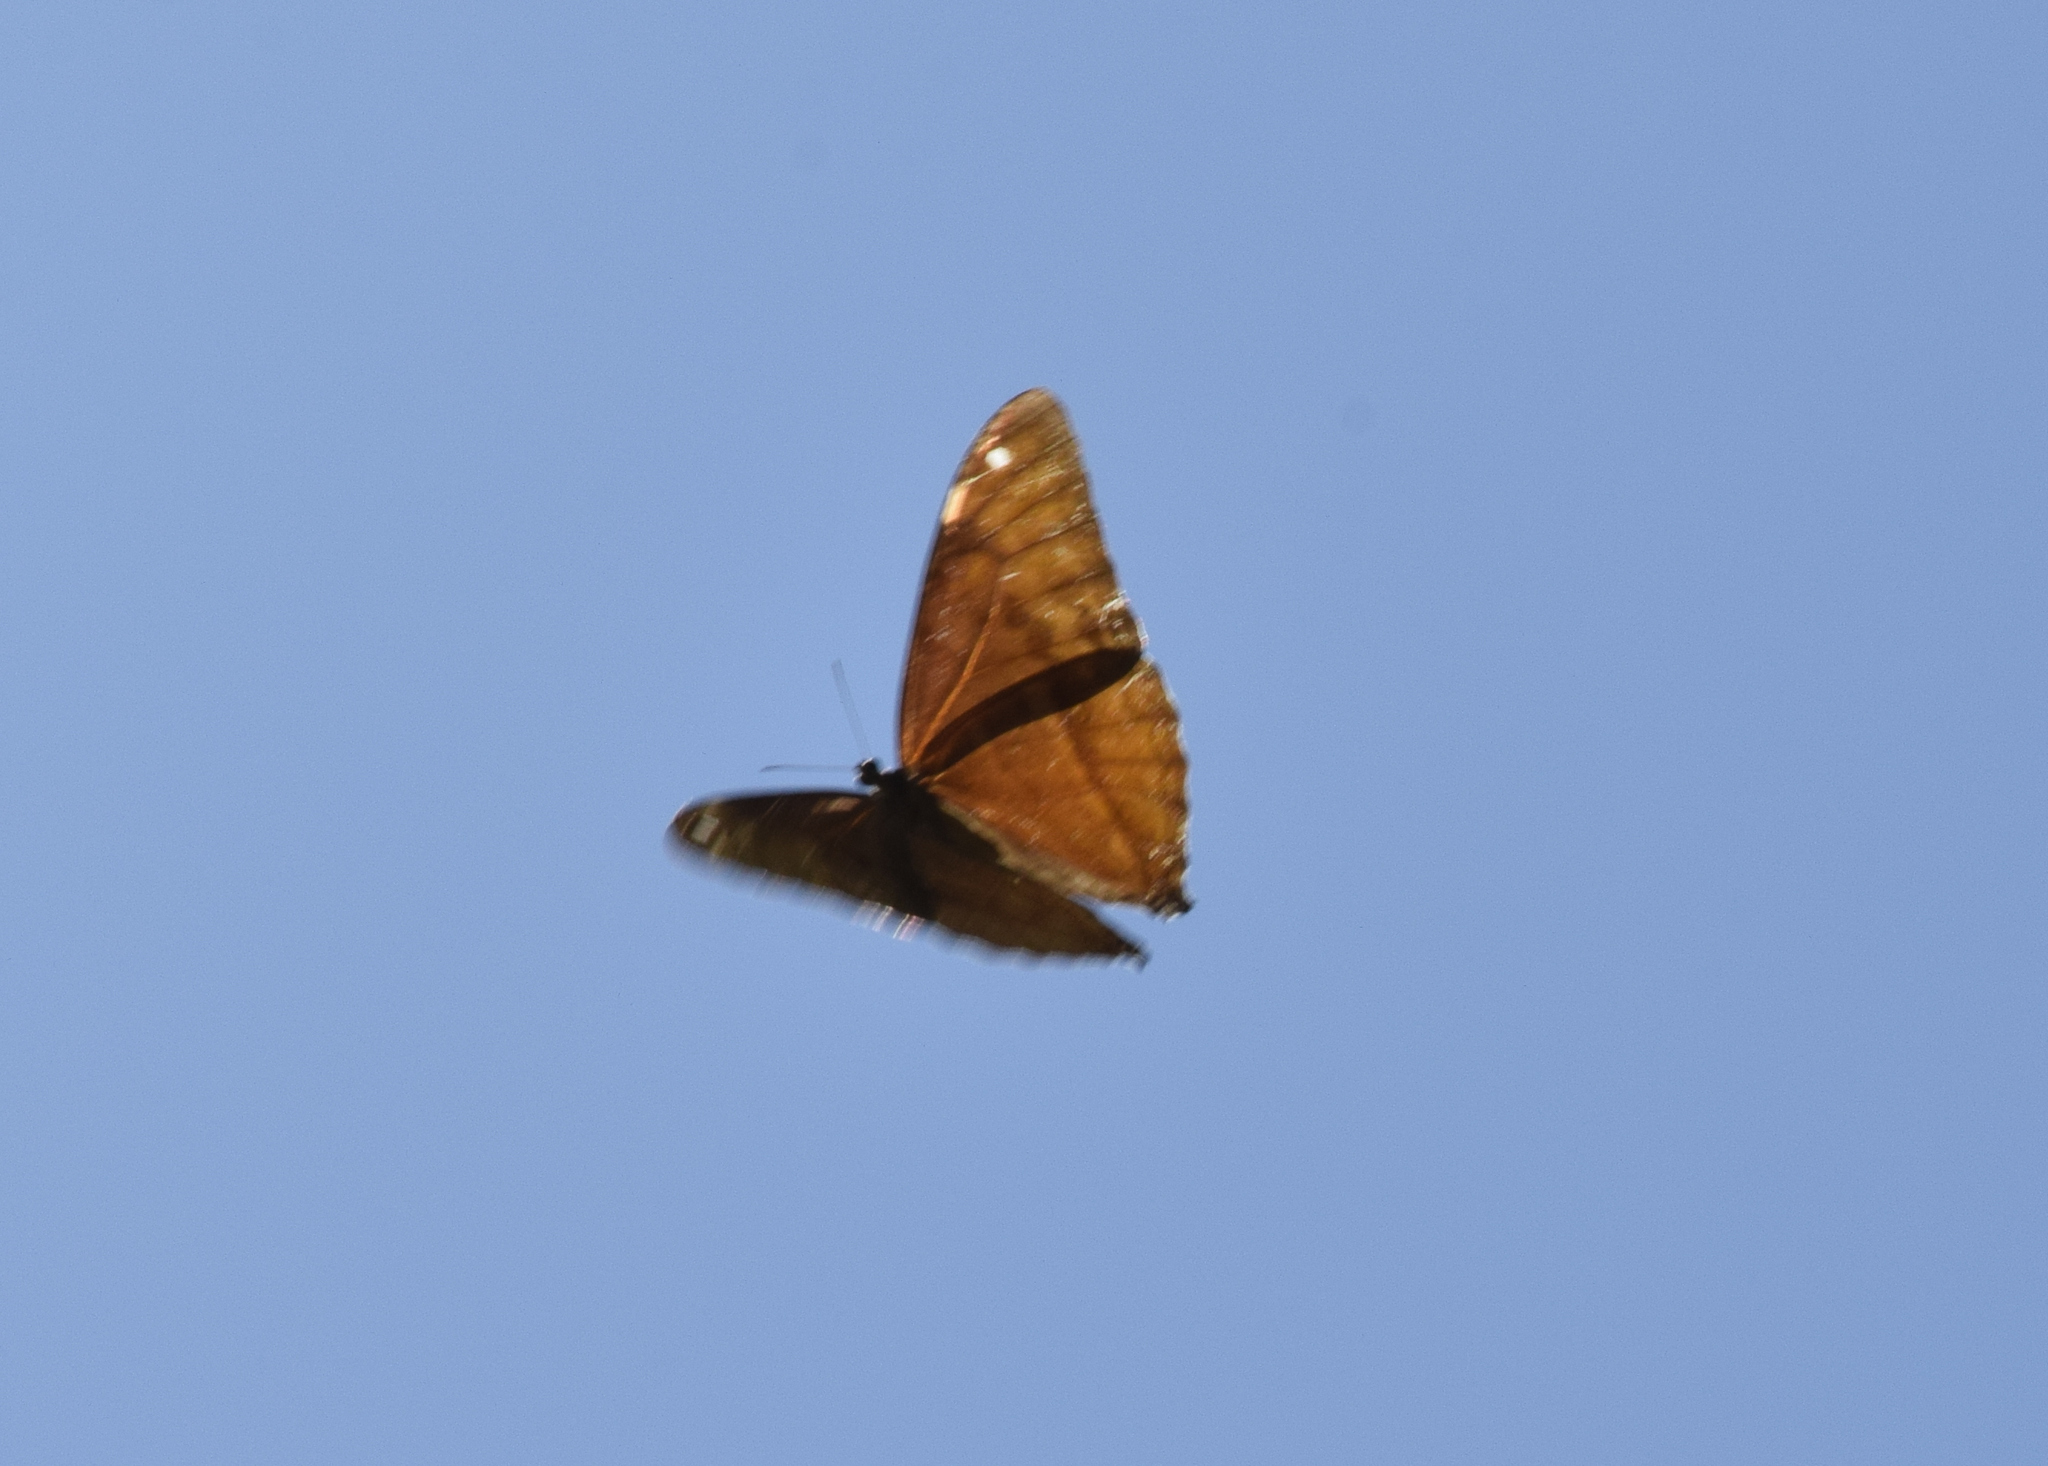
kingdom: Animalia
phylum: Arthropoda
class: Insecta
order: Lepidoptera
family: Nymphalidae
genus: Morpho
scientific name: Morpho aega
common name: Aega morpho
